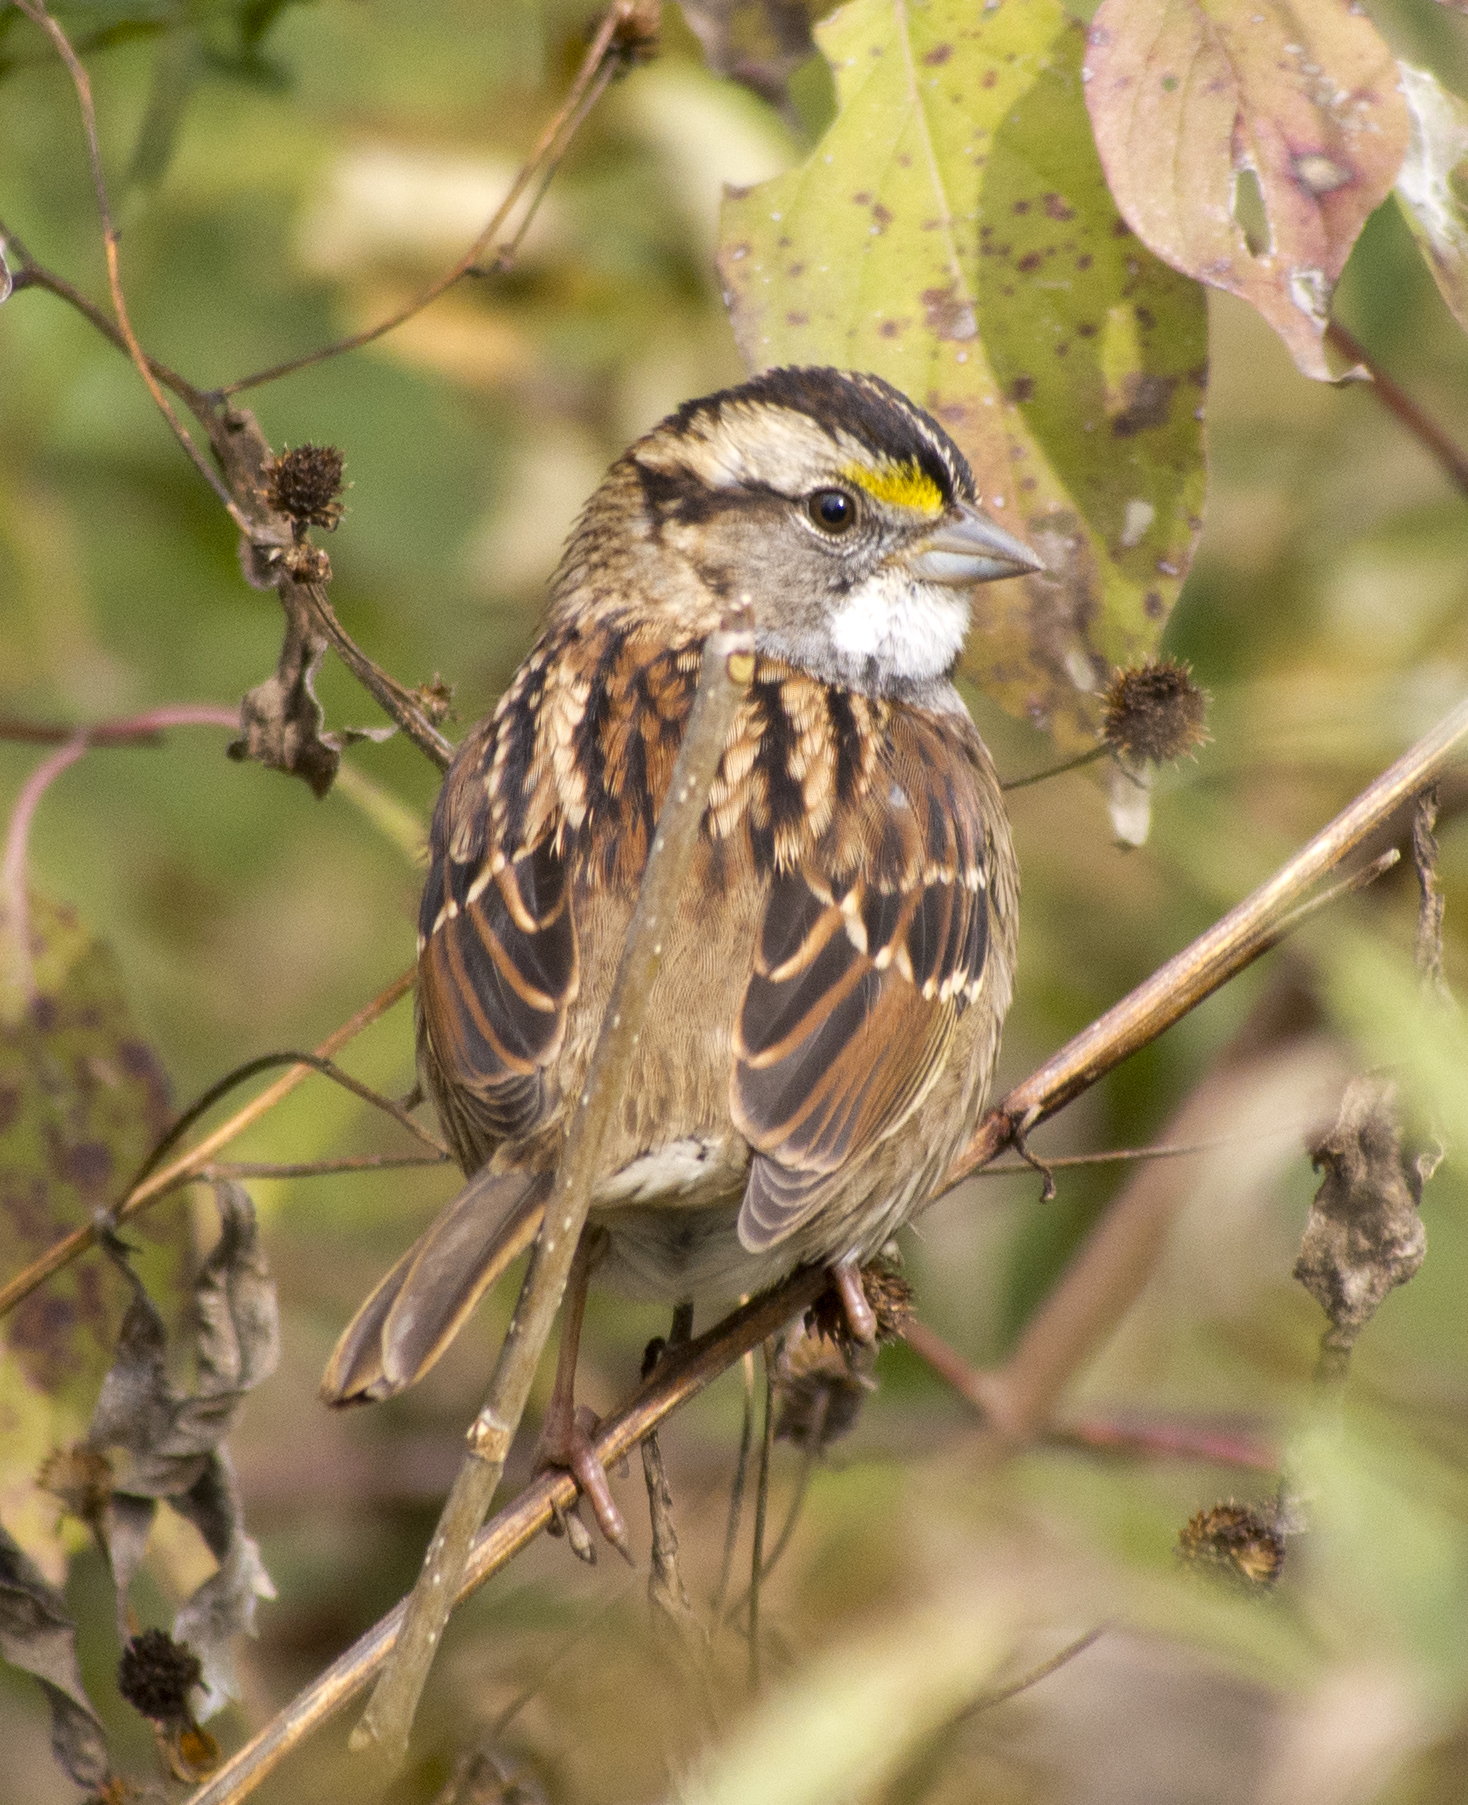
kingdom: Animalia
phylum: Chordata
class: Aves
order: Passeriformes
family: Passerellidae
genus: Zonotrichia
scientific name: Zonotrichia albicollis
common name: White-throated sparrow
